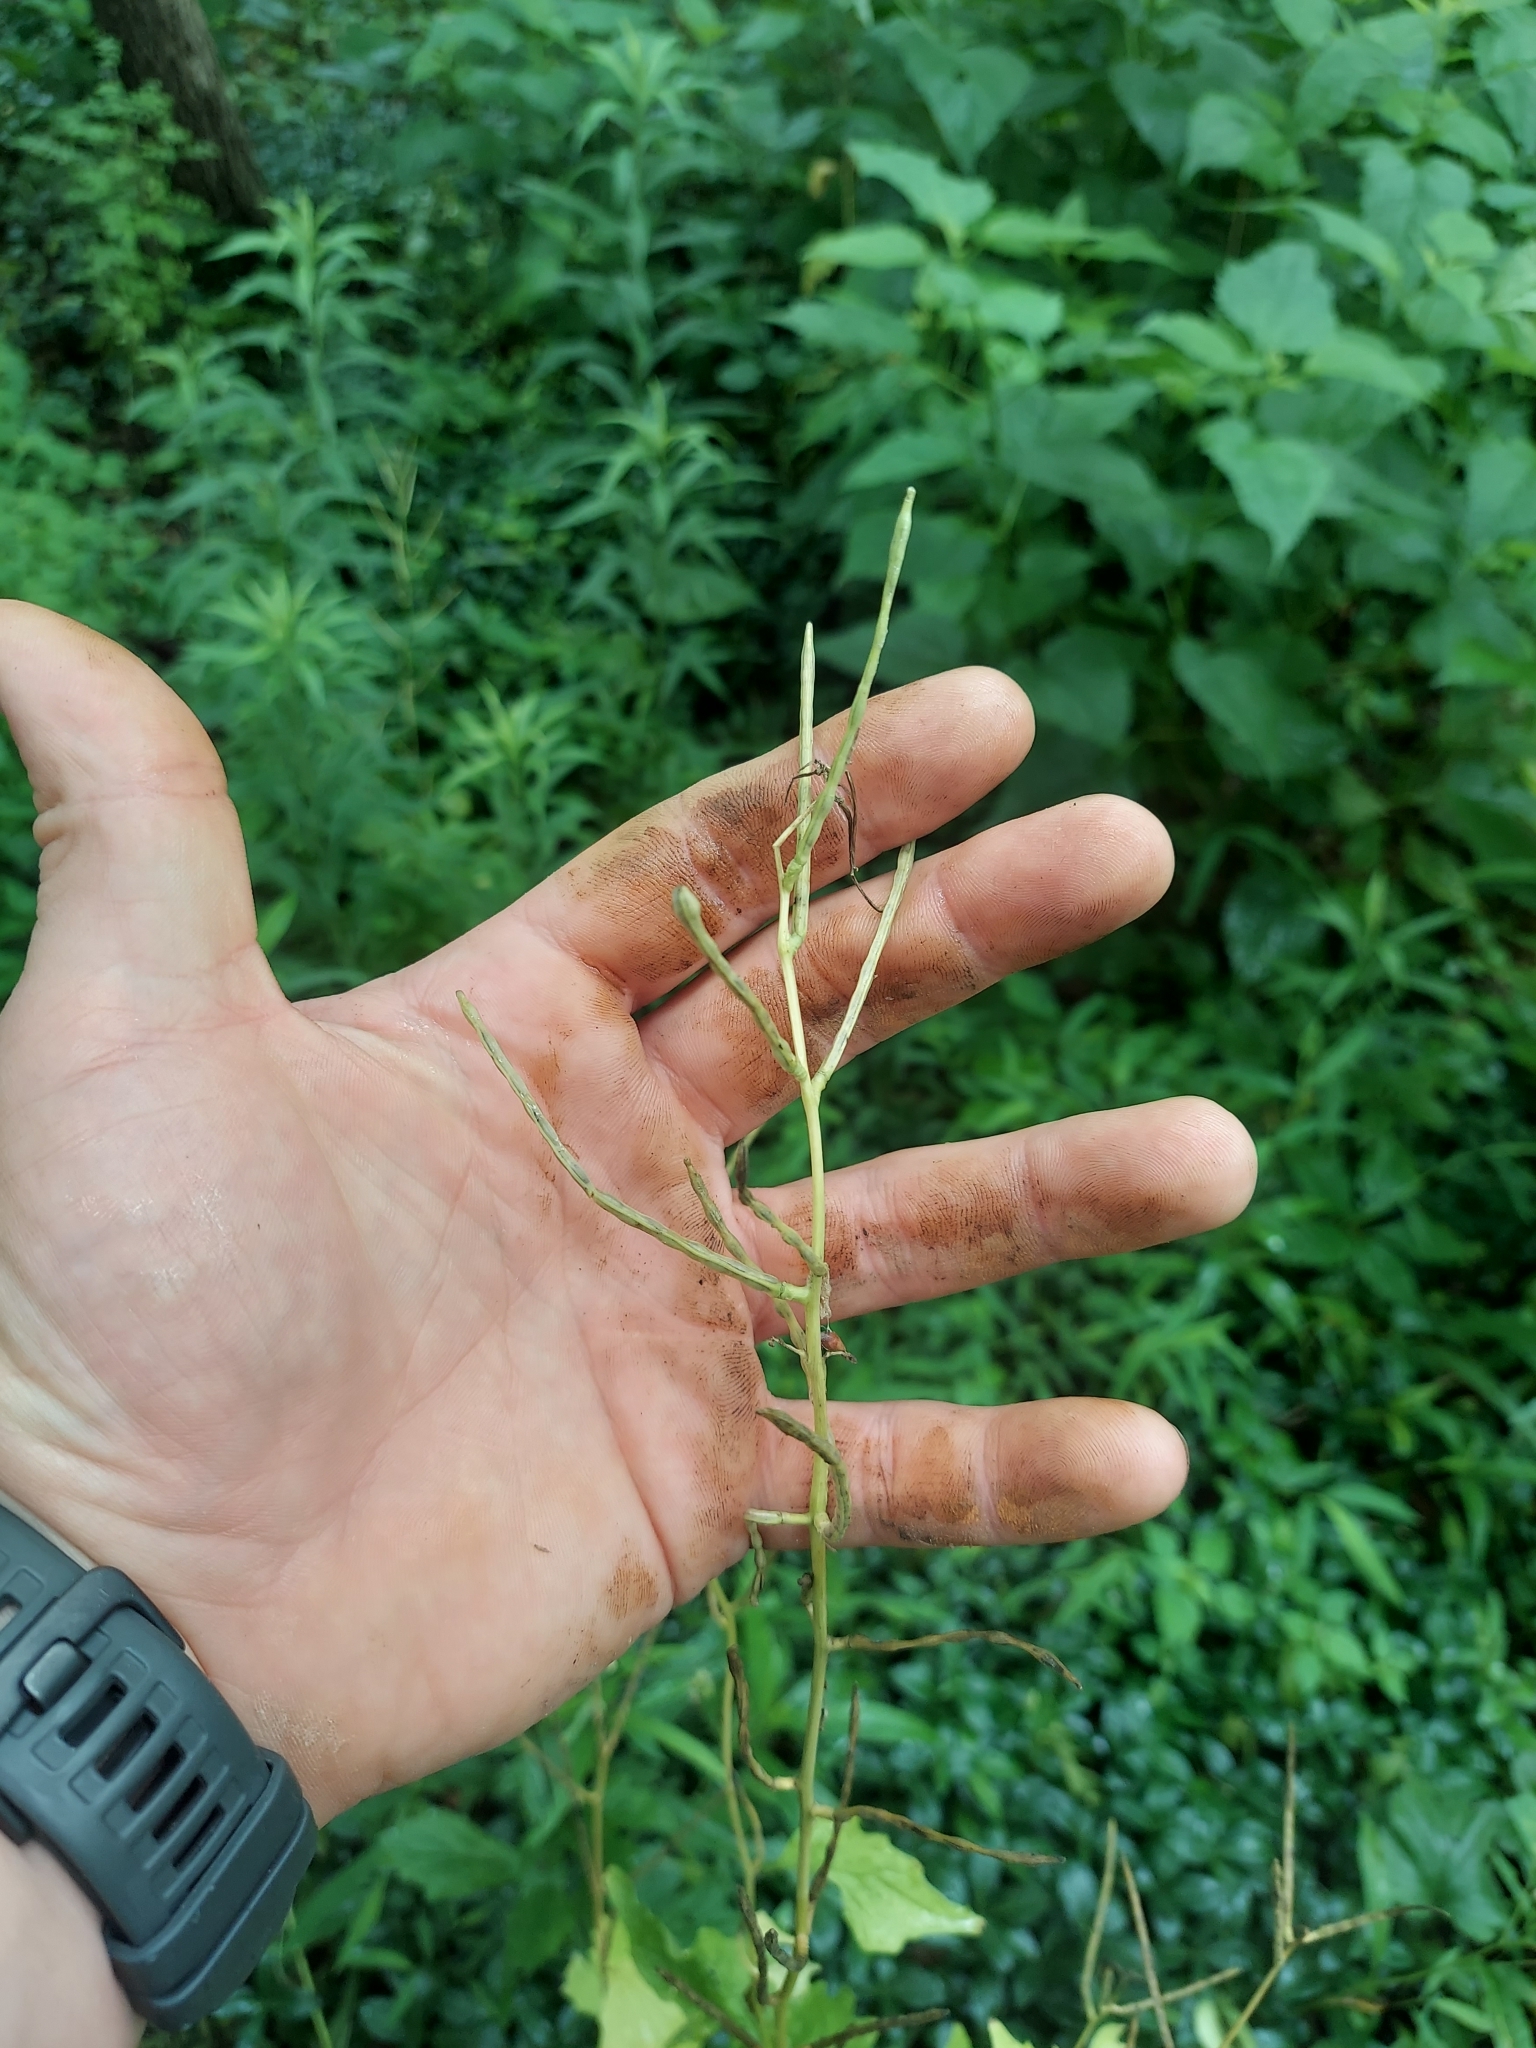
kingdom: Plantae
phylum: Tracheophyta
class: Magnoliopsida
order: Brassicales
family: Brassicaceae
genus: Alliaria
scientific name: Alliaria petiolata
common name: Garlic mustard
